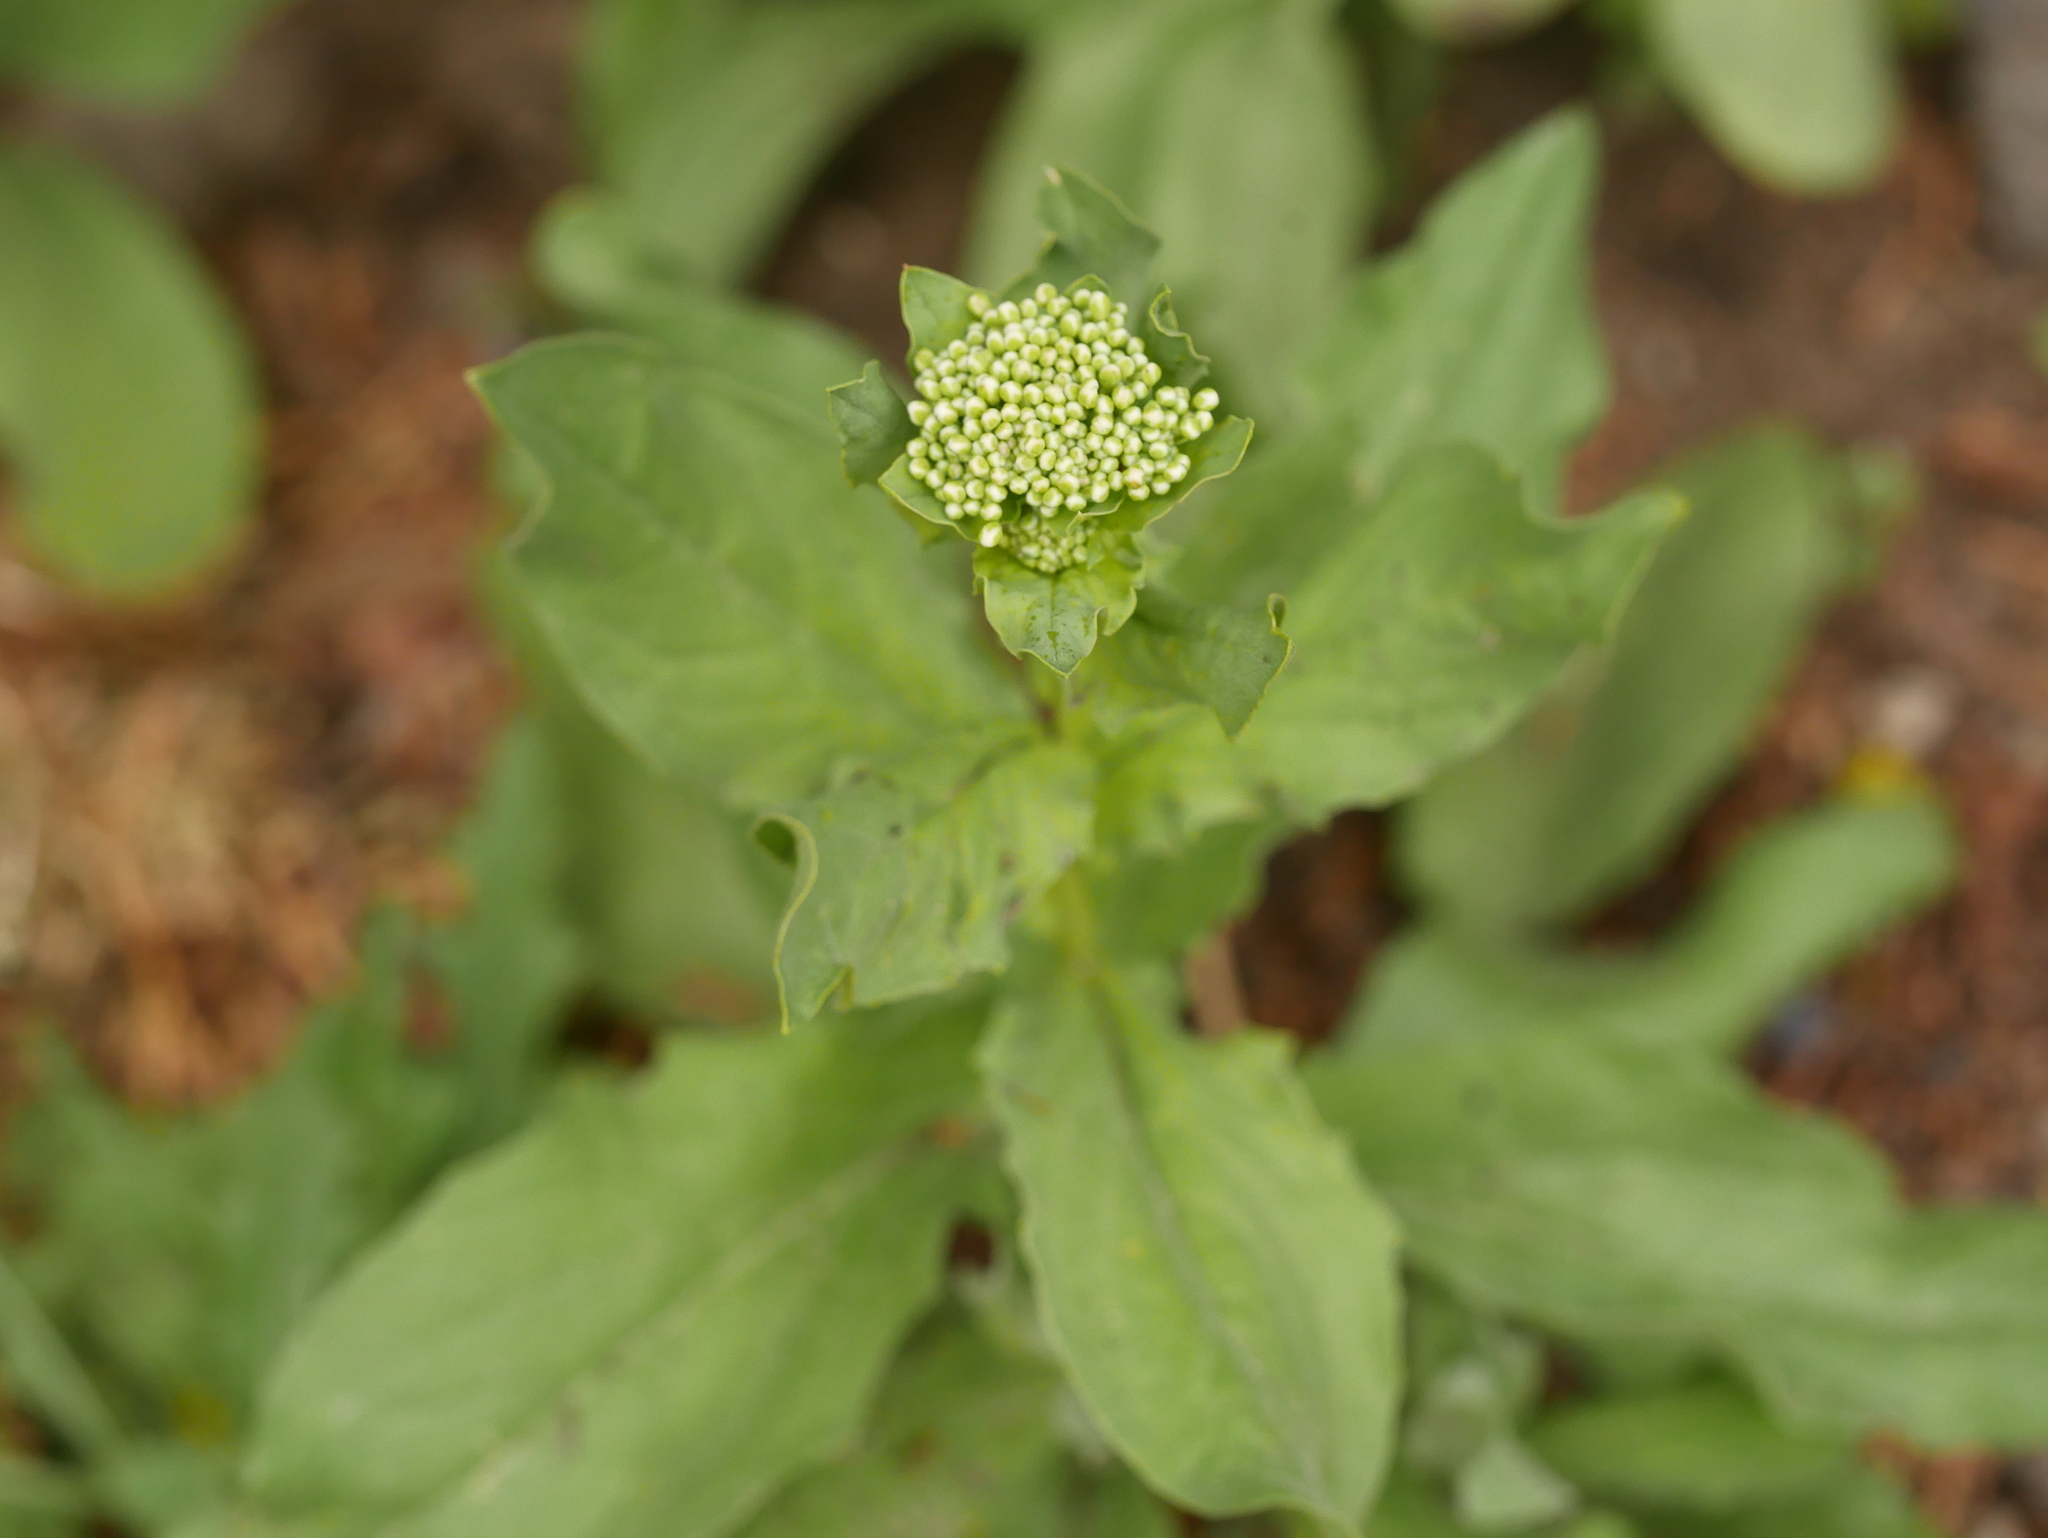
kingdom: Plantae
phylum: Tracheophyta
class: Magnoliopsida
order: Brassicales
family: Brassicaceae
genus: Lepidium
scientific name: Lepidium draba
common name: Hoary cress
